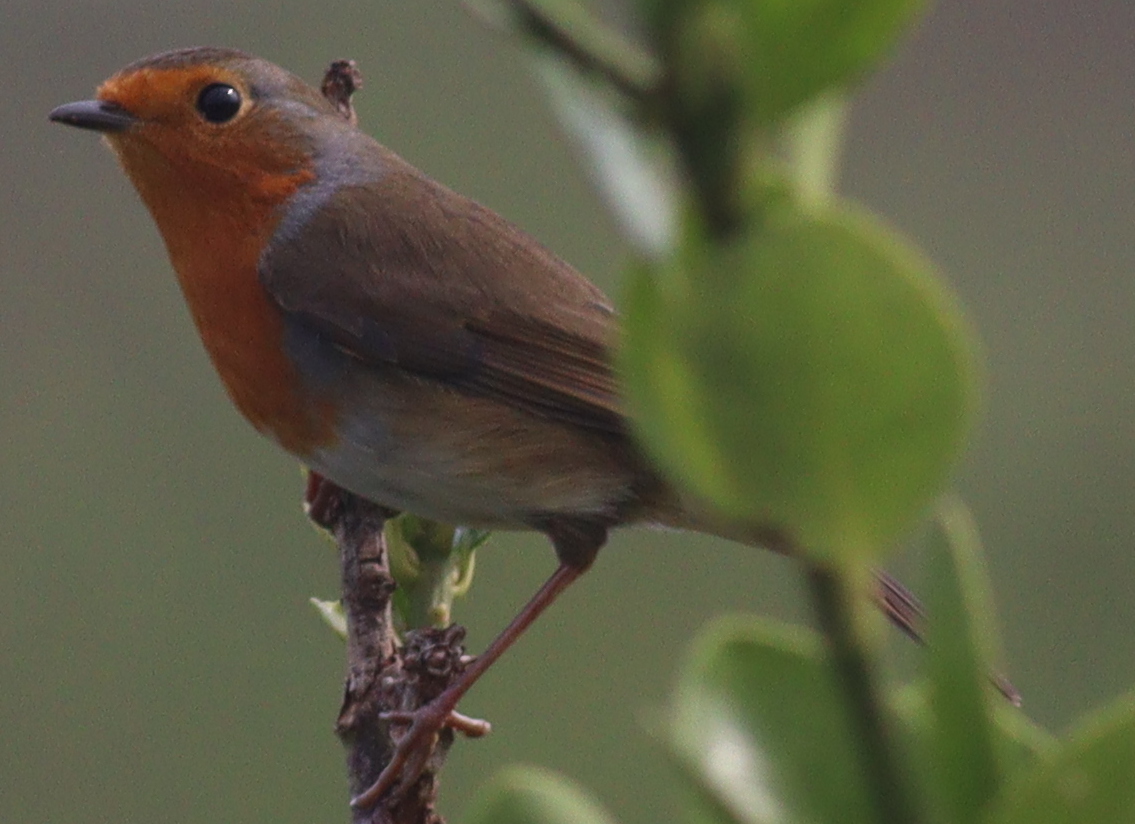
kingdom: Animalia
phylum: Chordata
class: Aves
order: Passeriformes
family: Muscicapidae
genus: Erithacus
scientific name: Erithacus rubecula
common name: European robin
